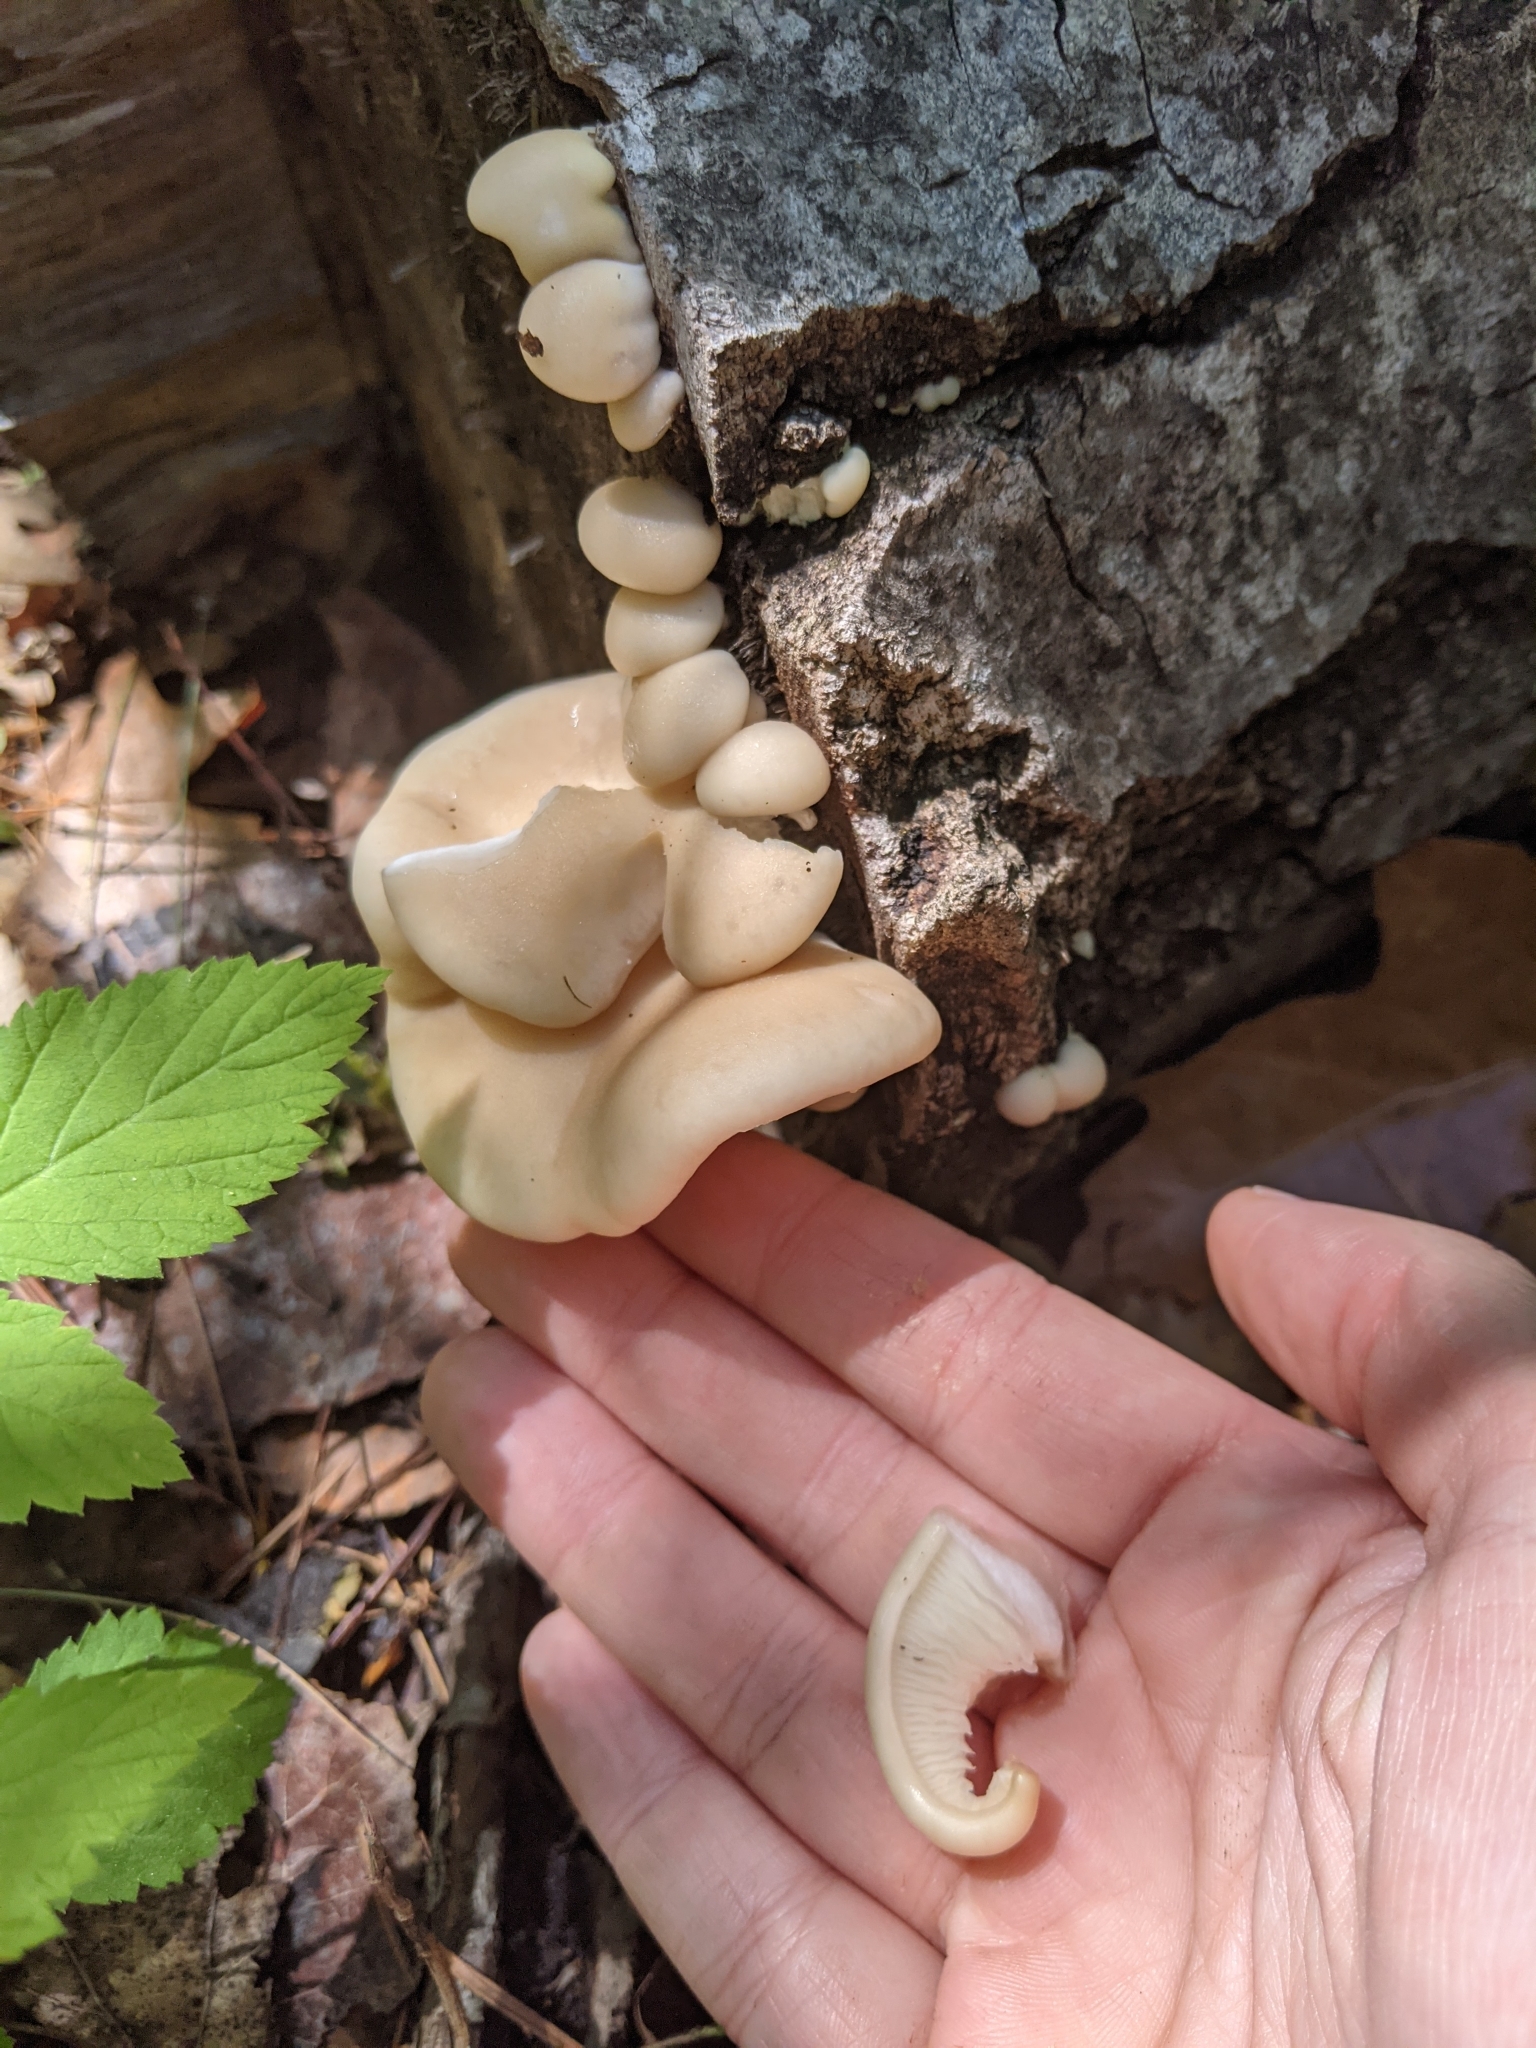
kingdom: Fungi
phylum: Basidiomycota
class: Agaricomycetes
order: Agaricales
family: Pleurotaceae
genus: Pleurotus
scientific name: Pleurotus ostreatus
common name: Oyster mushroom
